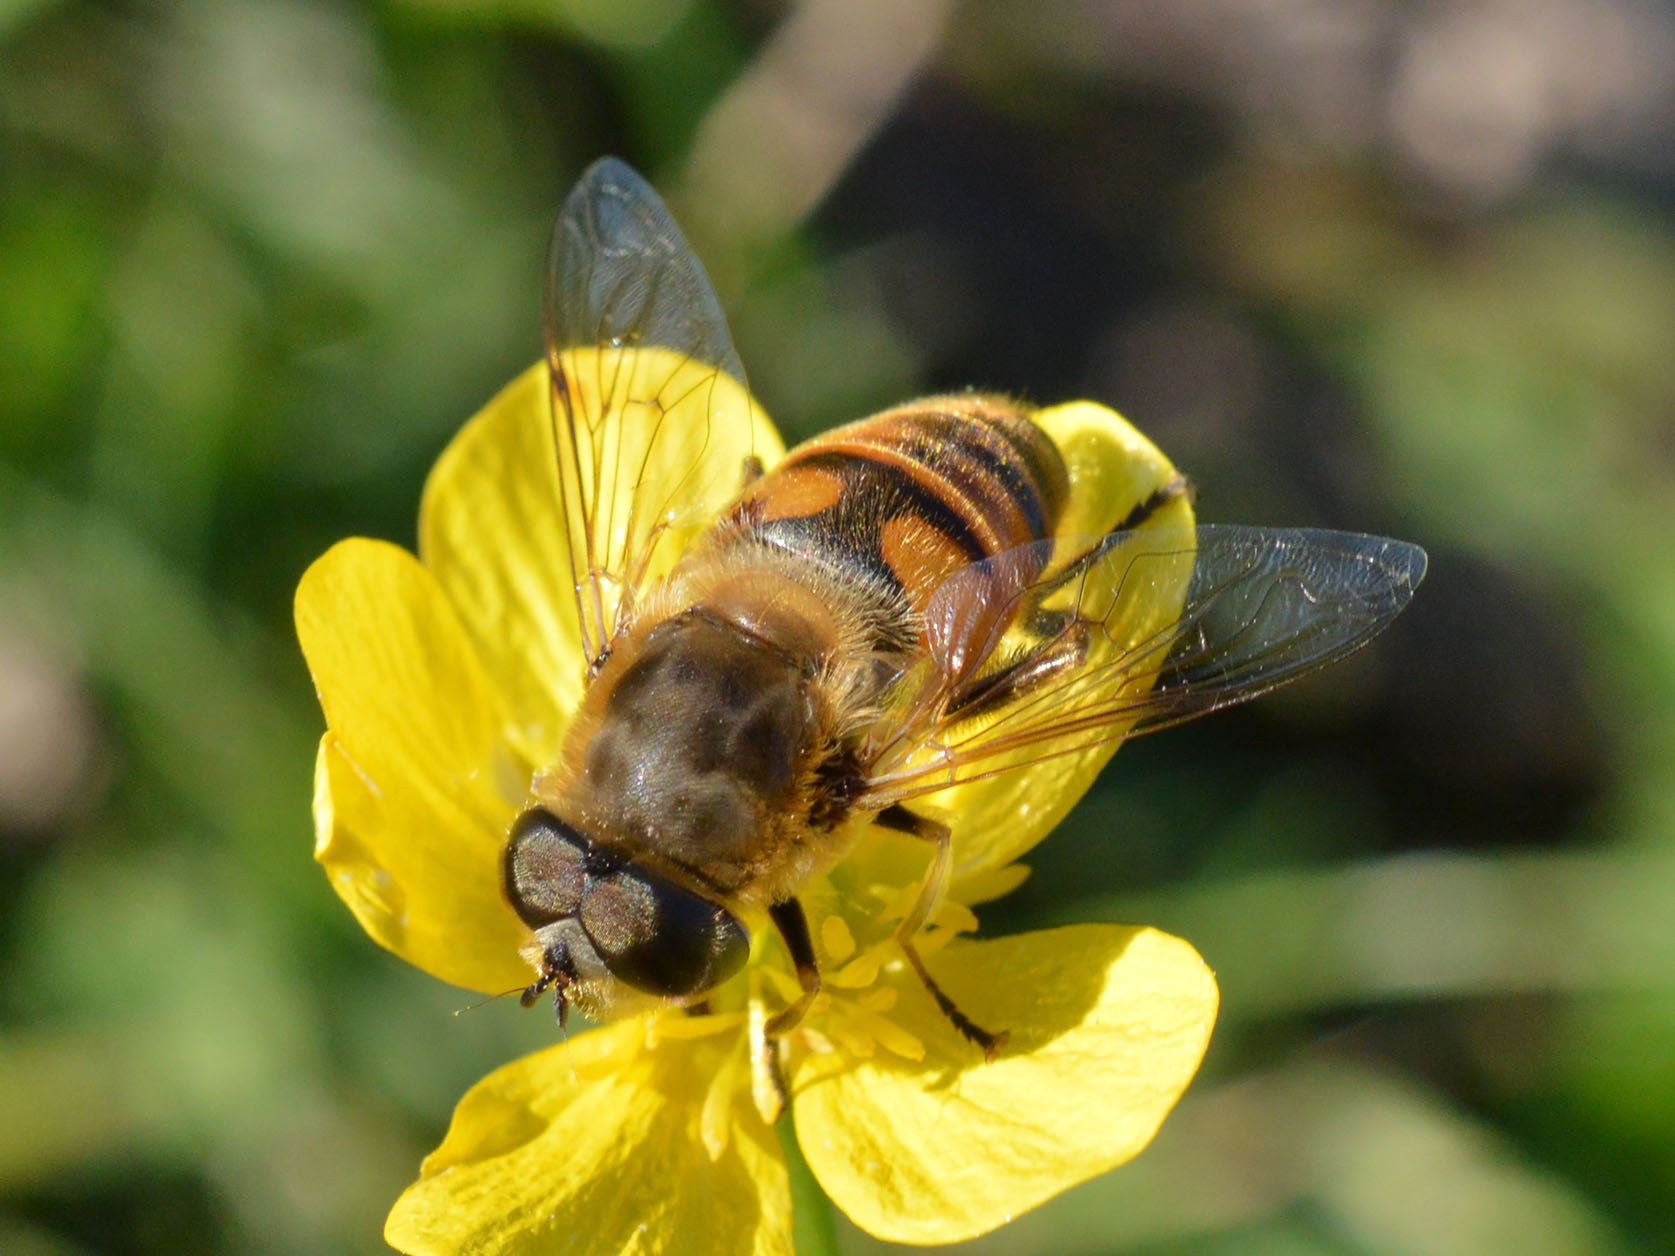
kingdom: Animalia
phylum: Arthropoda
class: Insecta
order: Diptera
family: Syrphidae
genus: Eristalis
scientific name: Eristalis tenax
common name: Drone fly
